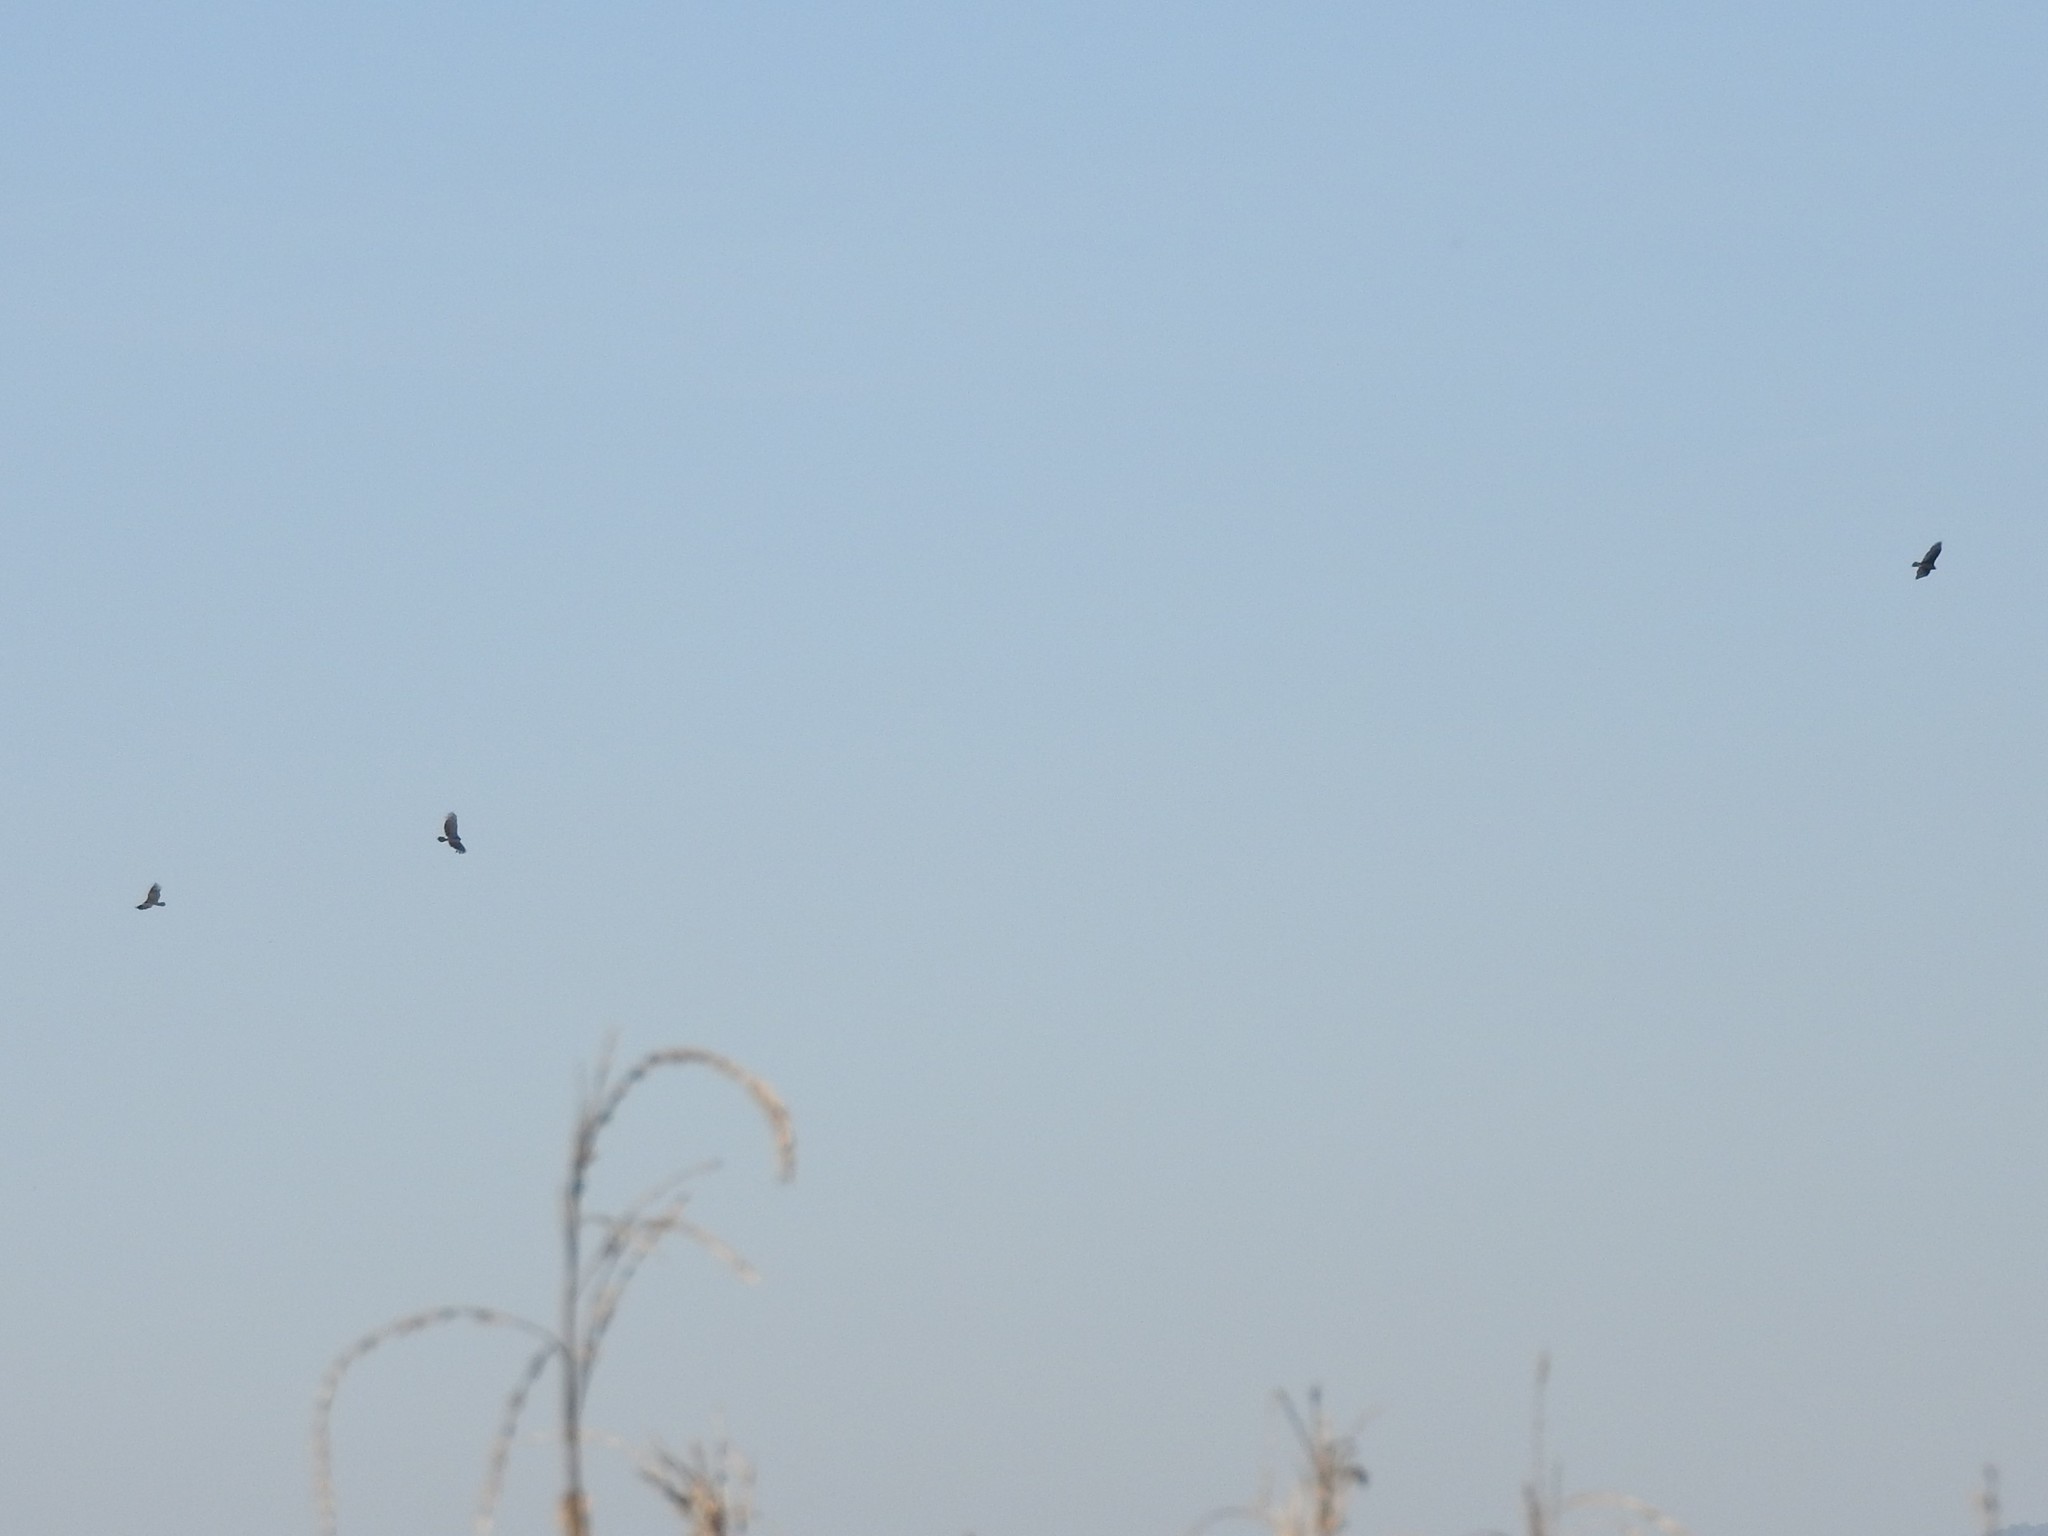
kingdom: Animalia
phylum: Chordata
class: Aves
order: Accipitriformes
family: Cathartidae
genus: Cathartes
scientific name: Cathartes aura
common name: Turkey vulture
